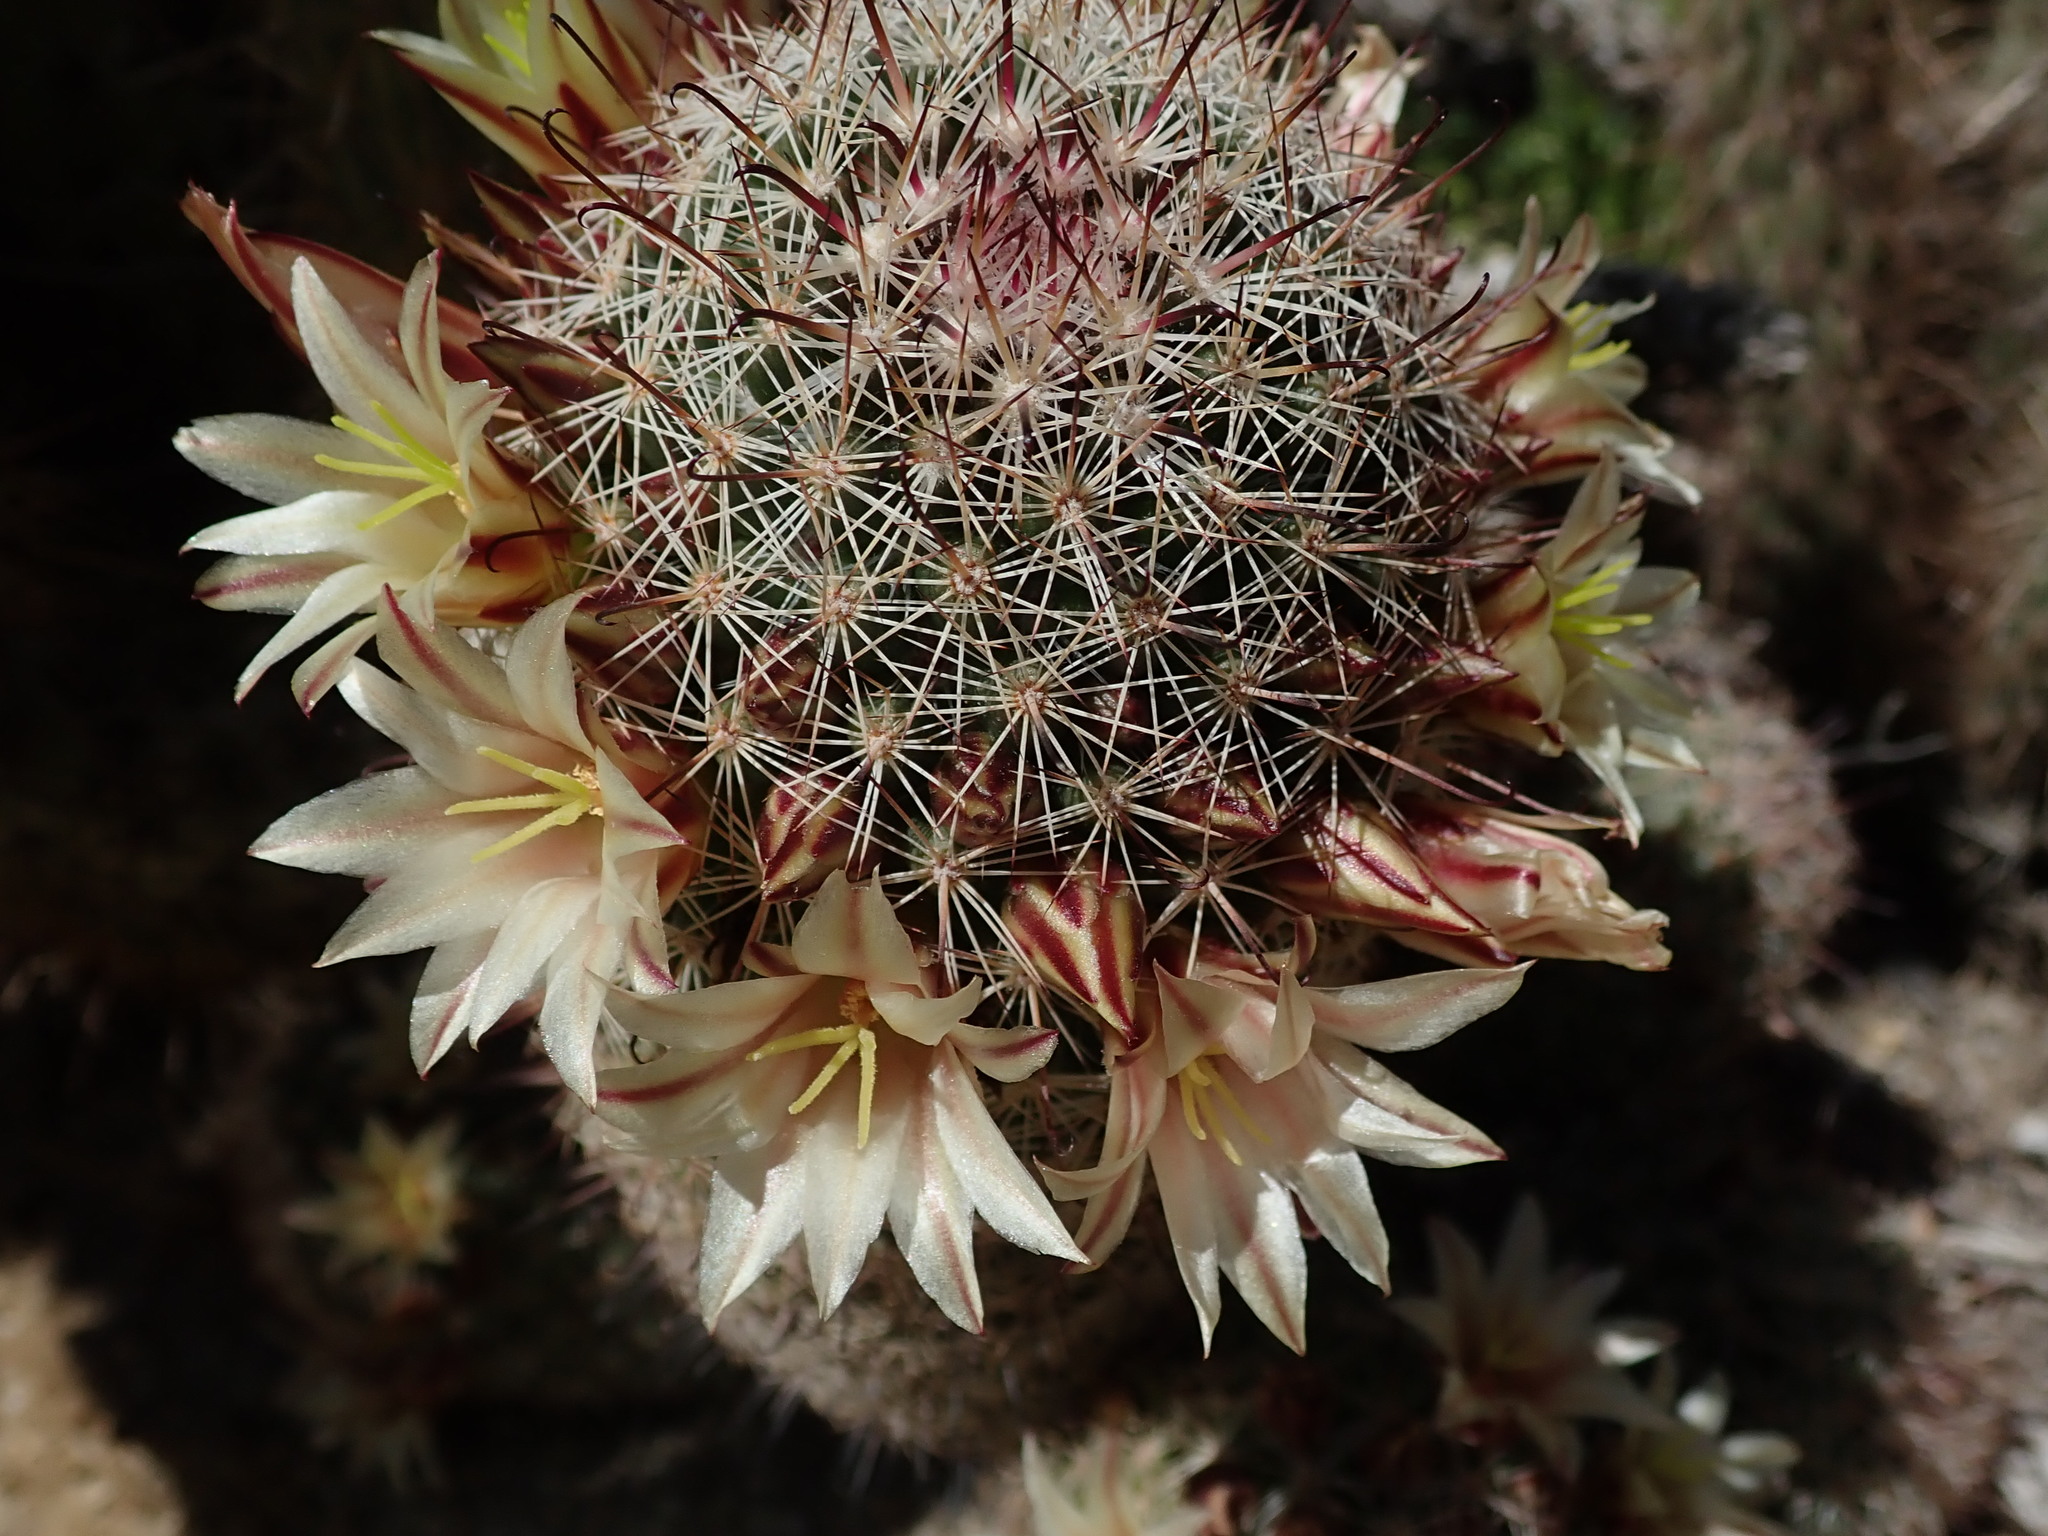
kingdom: Plantae
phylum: Tracheophyta
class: Magnoliopsida
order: Caryophyllales
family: Cactaceae
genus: Cochemiea
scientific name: Cochemiea dioica
